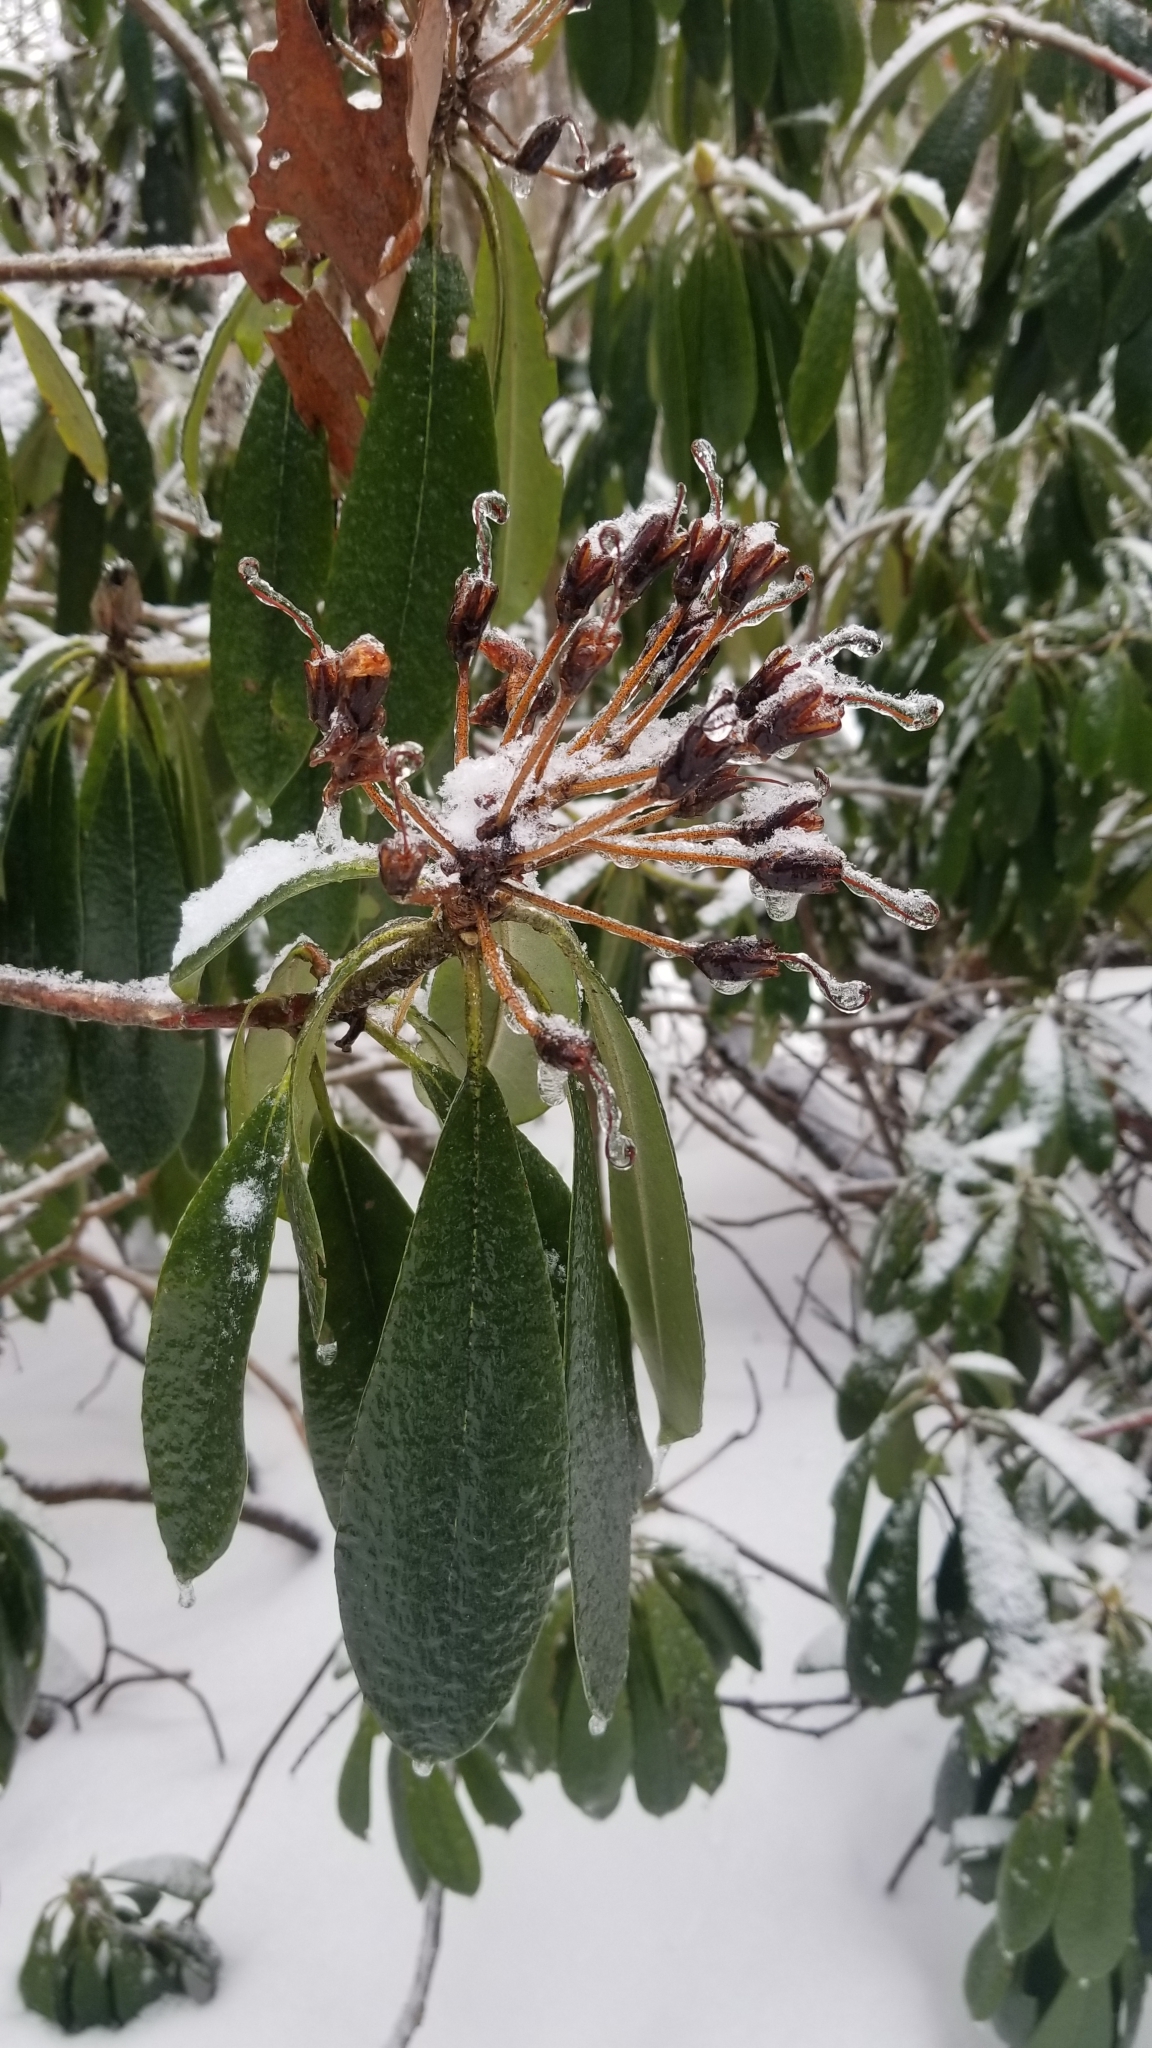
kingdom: Plantae
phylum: Tracheophyta
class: Magnoliopsida
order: Ericales
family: Ericaceae
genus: Rhododendron
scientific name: Rhododendron maximum
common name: Great rhododendron
